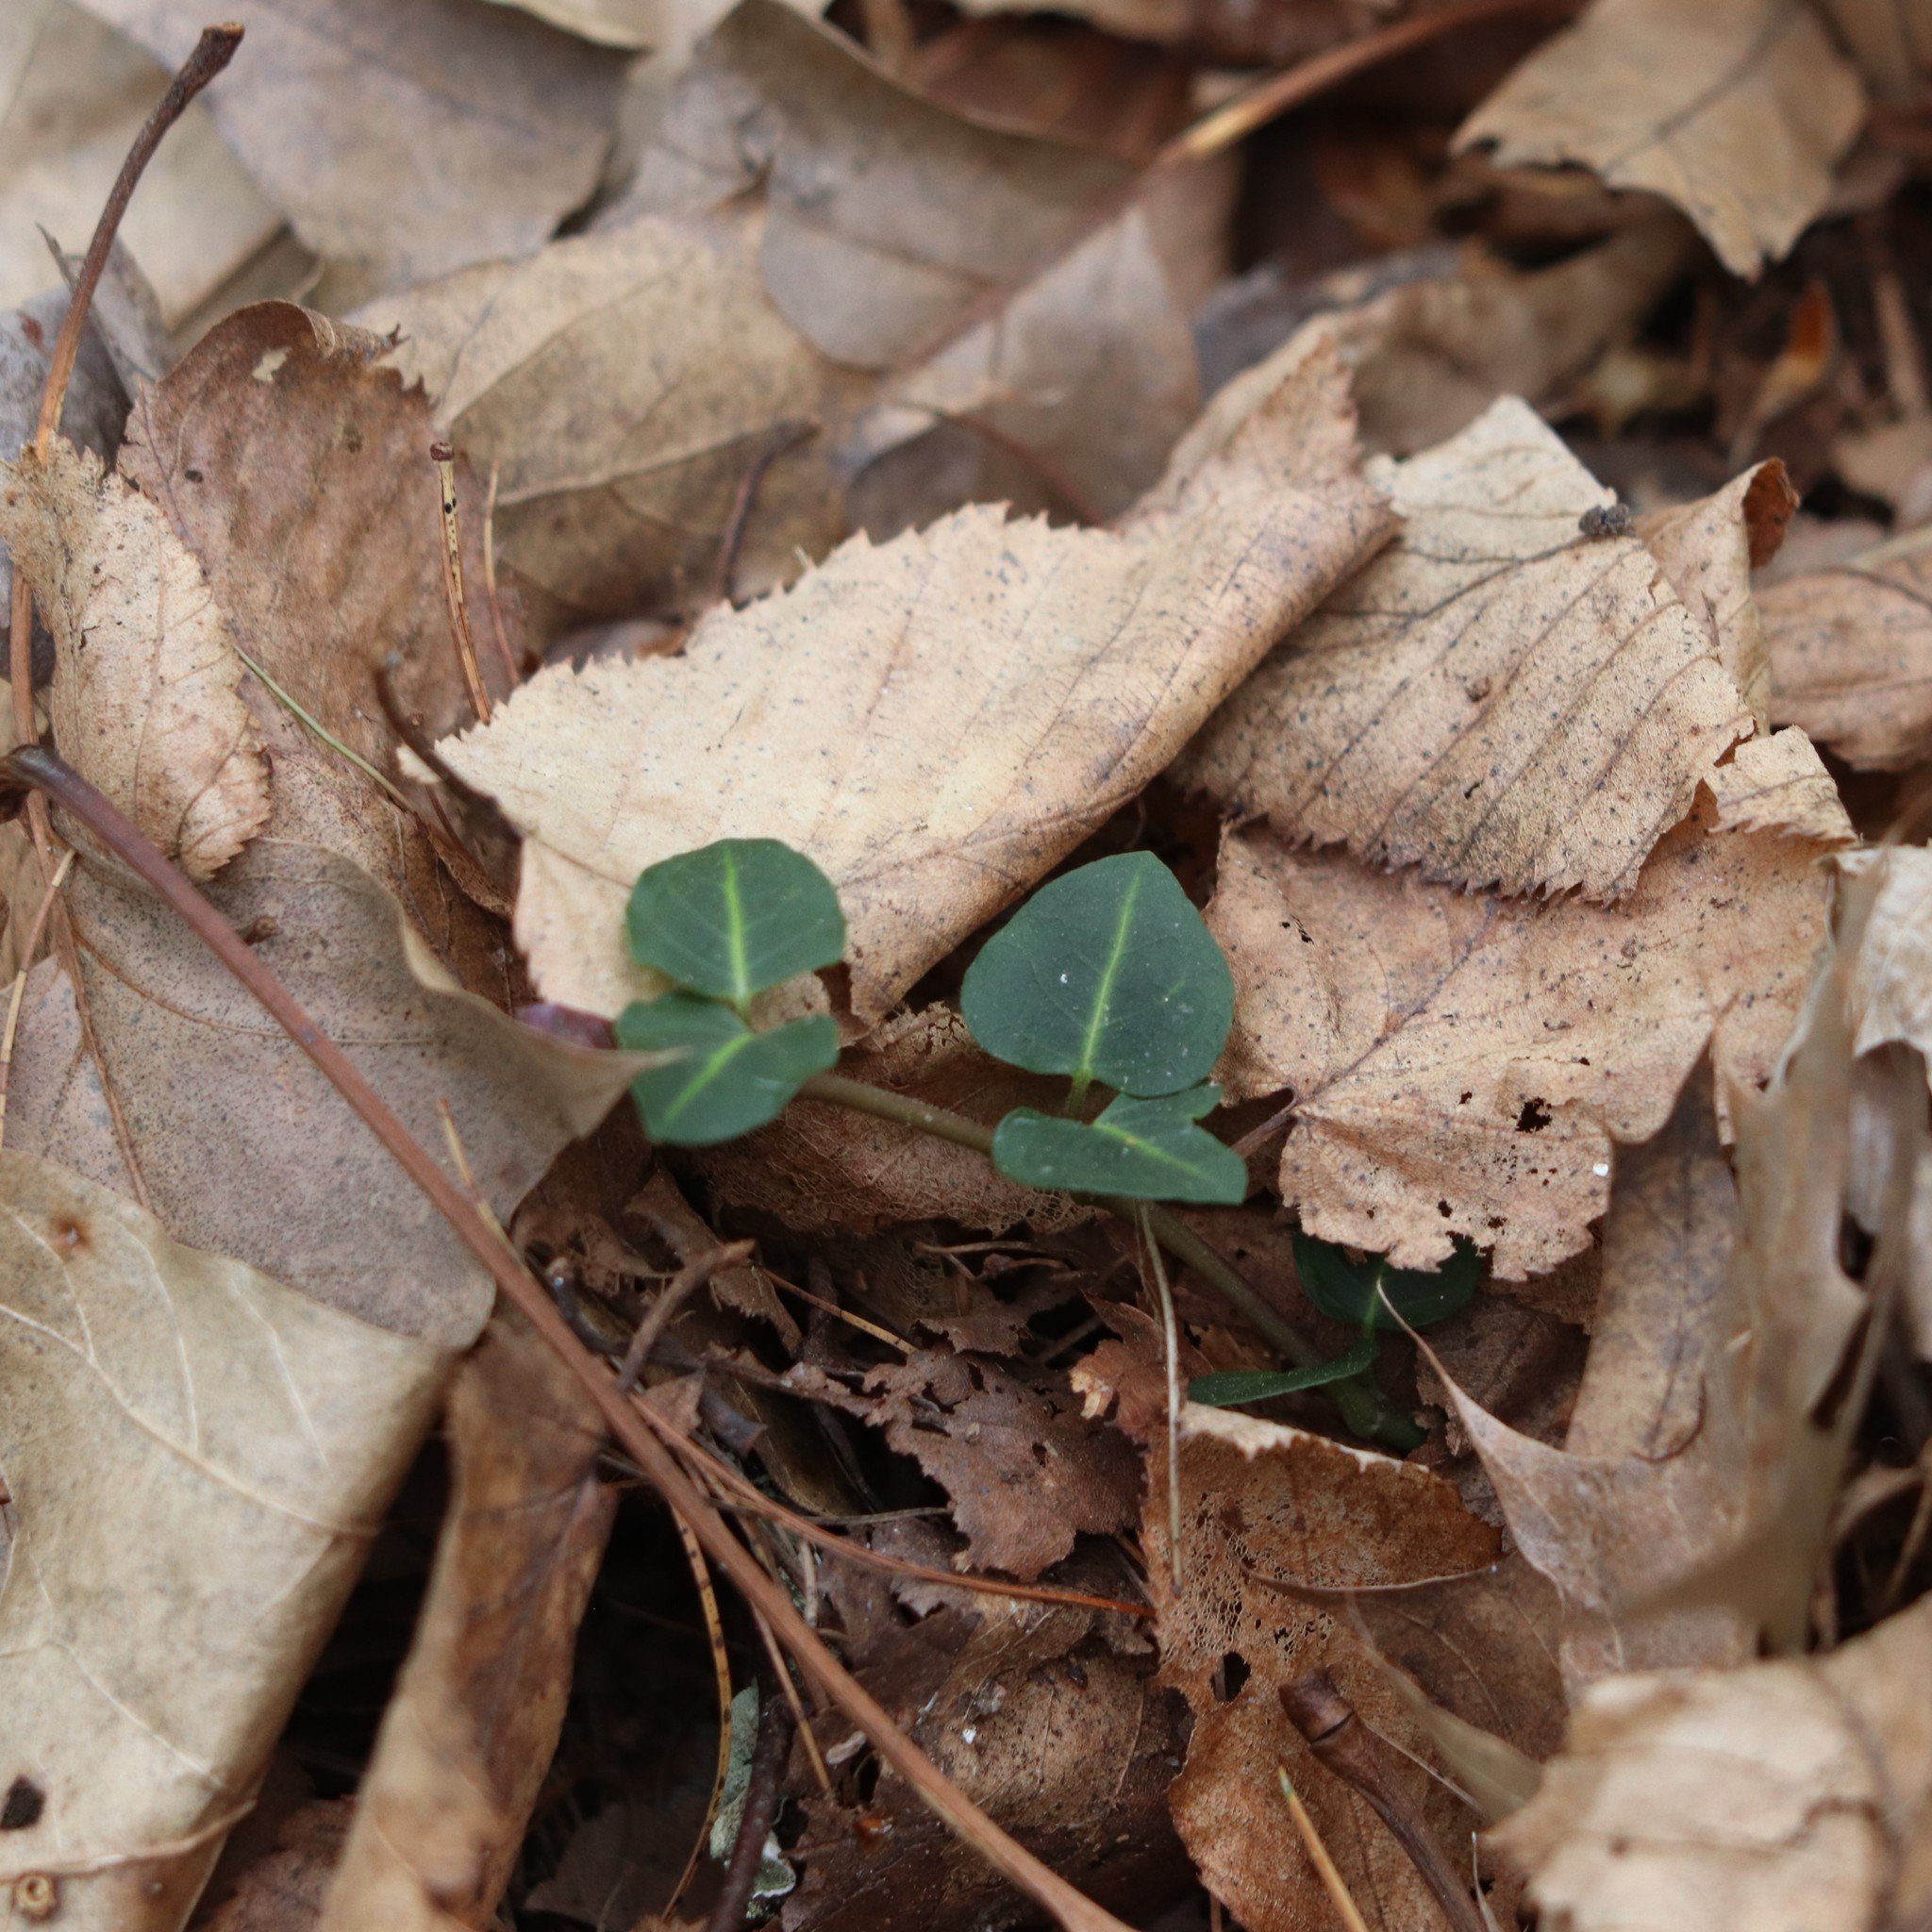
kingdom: Plantae
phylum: Tracheophyta
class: Magnoliopsida
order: Gentianales
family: Rubiaceae
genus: Mitchella
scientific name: Mitchella repens
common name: Partridge-berry
